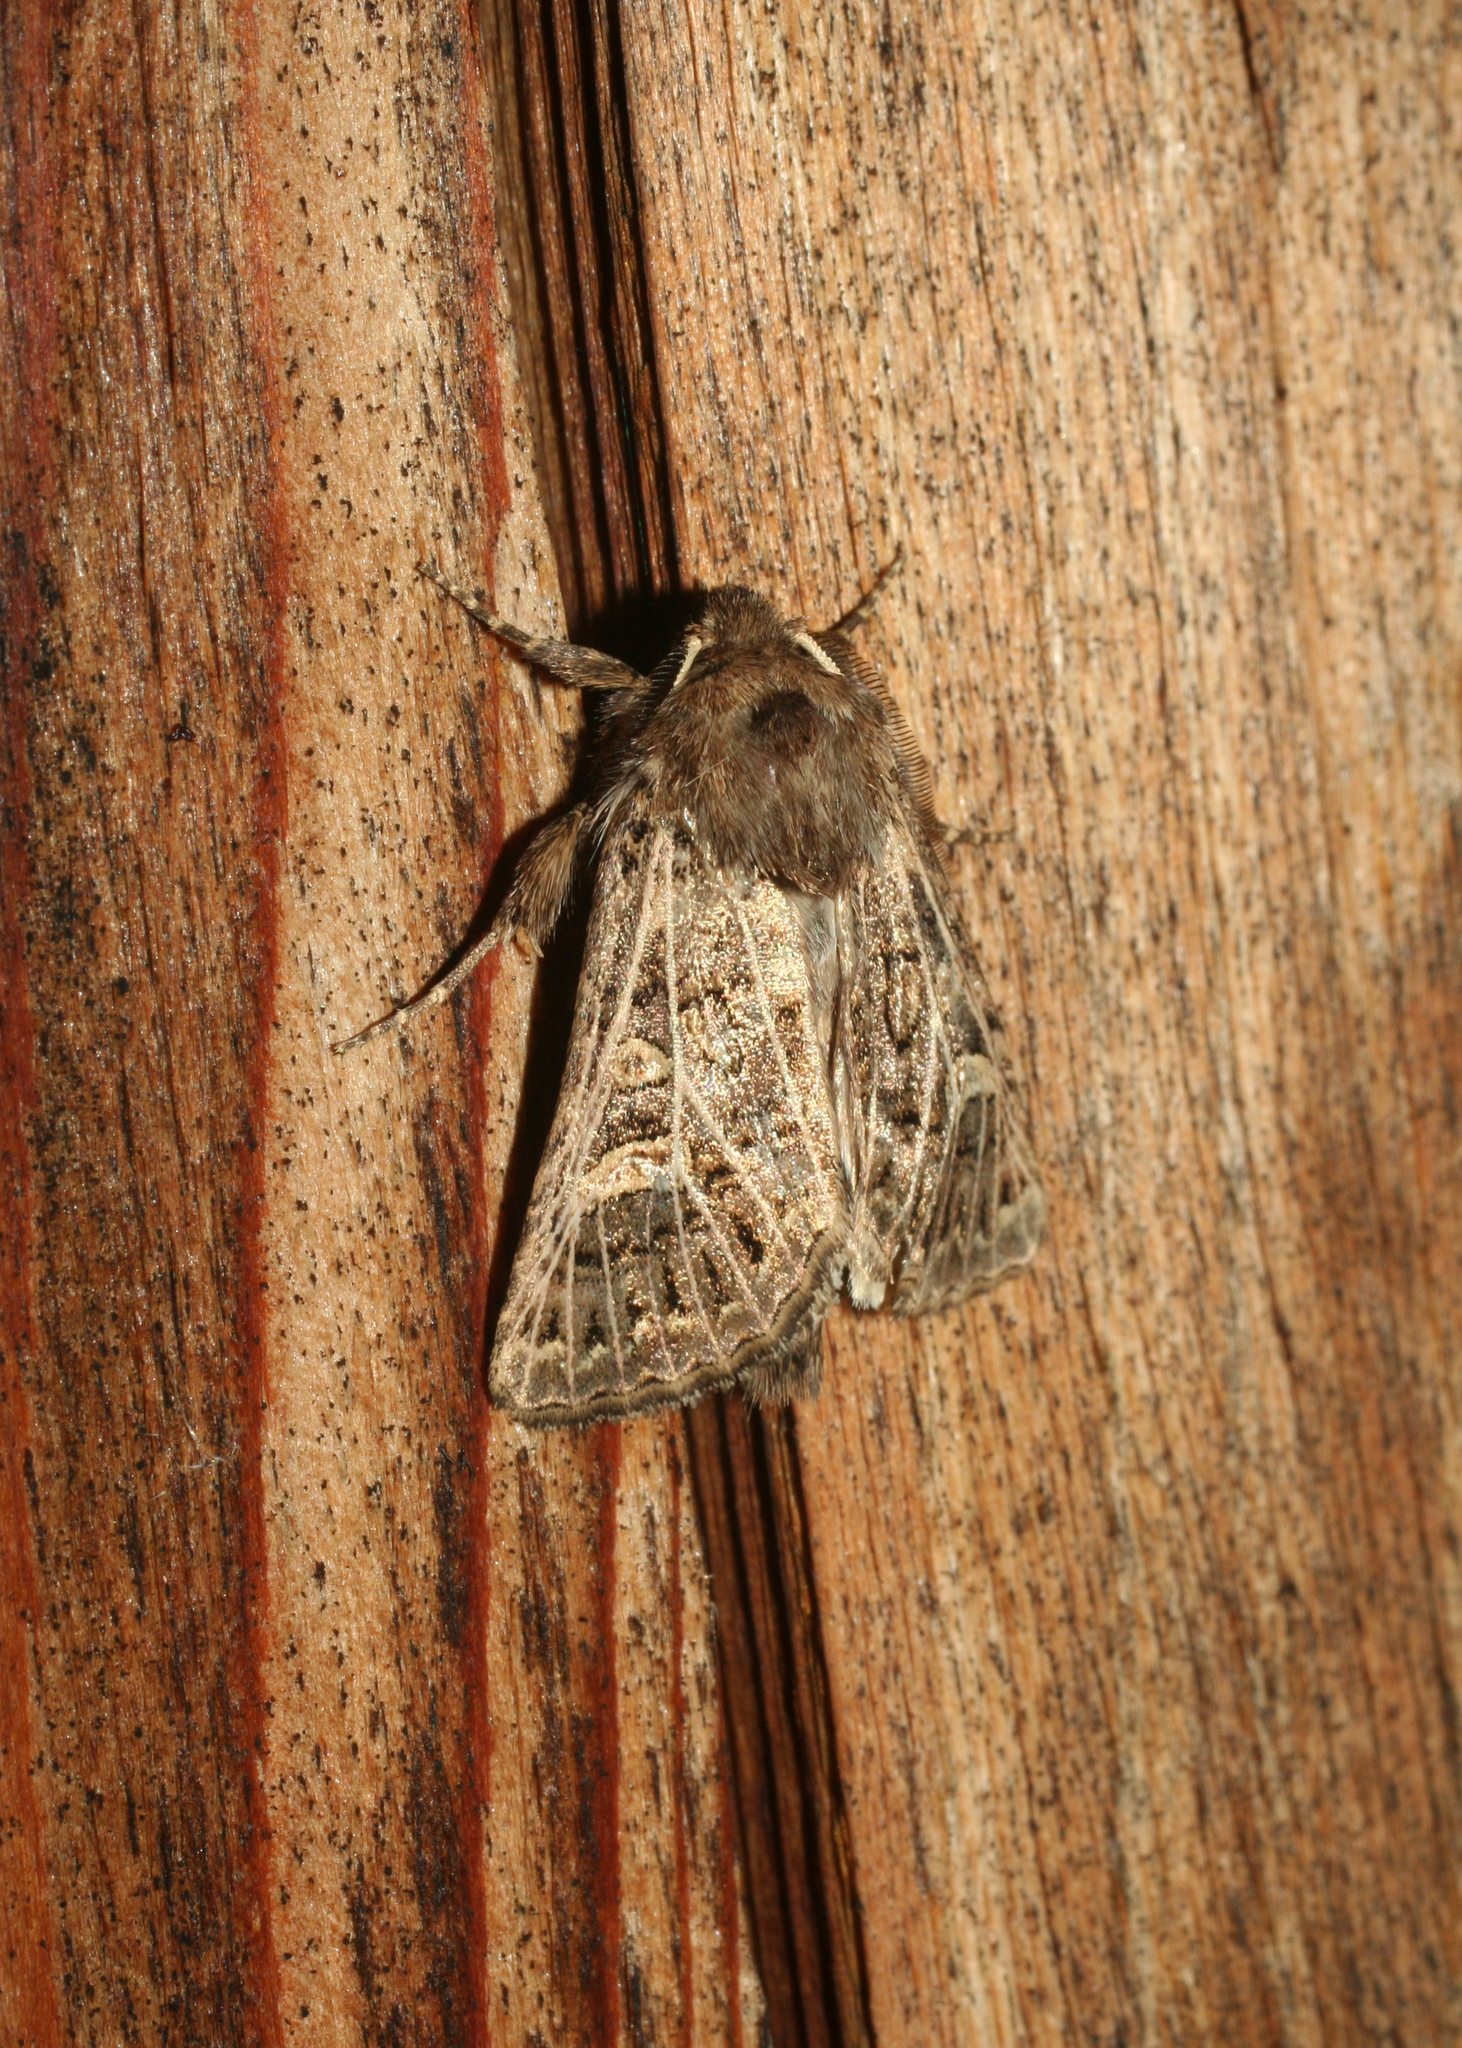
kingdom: Animalia
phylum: Arthropoda
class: Insecta
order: Lepidoptera
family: Noctuidae
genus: Tholera
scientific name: Tholera decimalis
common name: Feathered gothic
